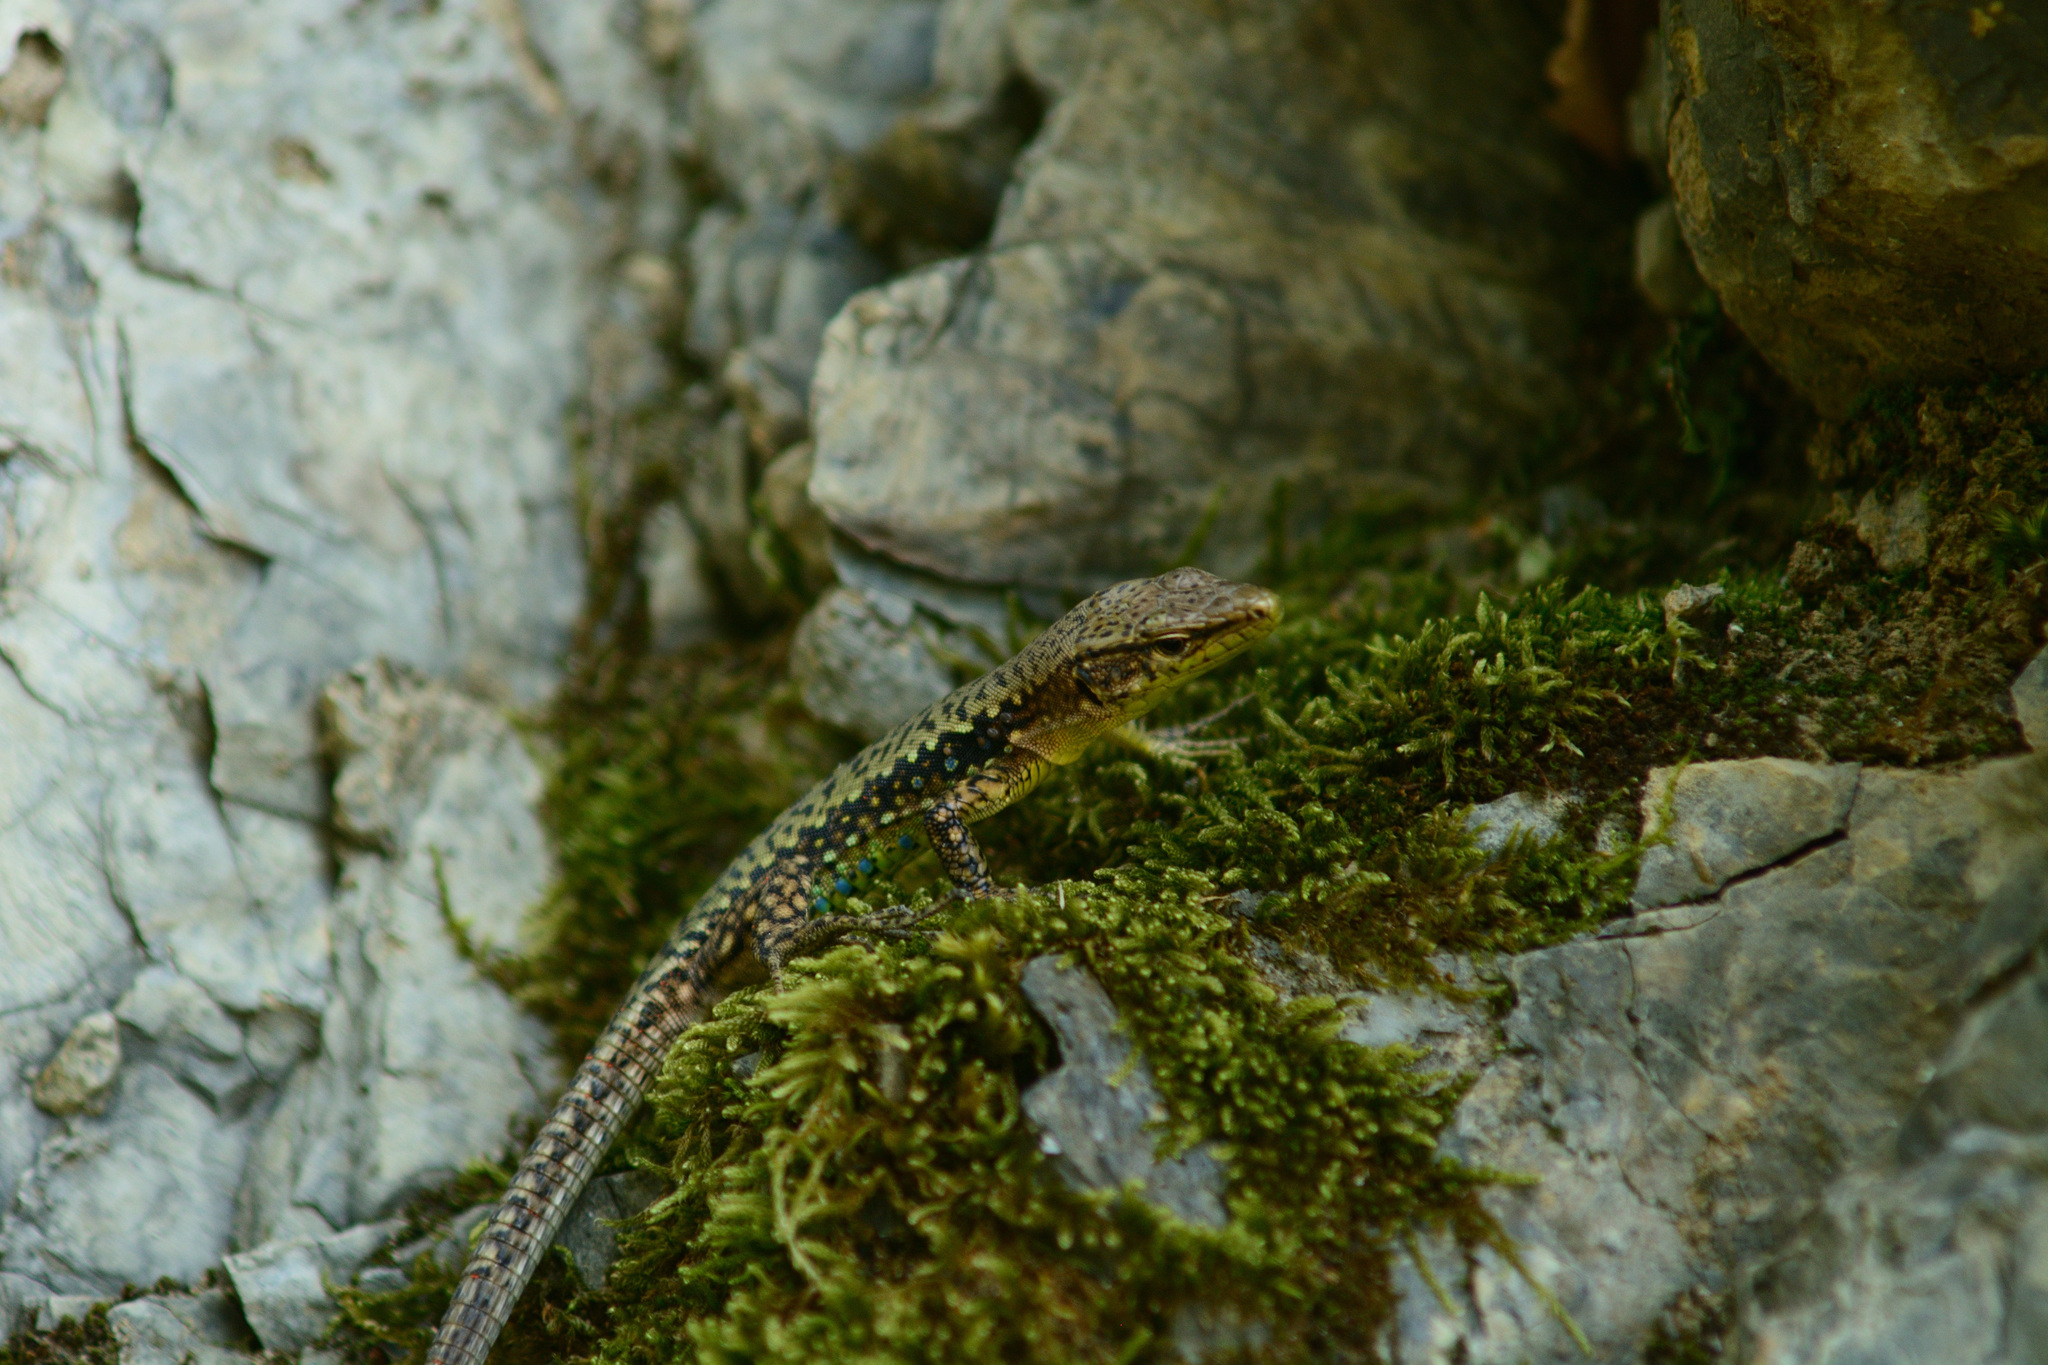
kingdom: Animalia
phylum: Chordata
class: Squamata
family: Lacertidae
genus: Darevskia
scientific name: Darevskia brauneri
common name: Brauner's rock lizard
